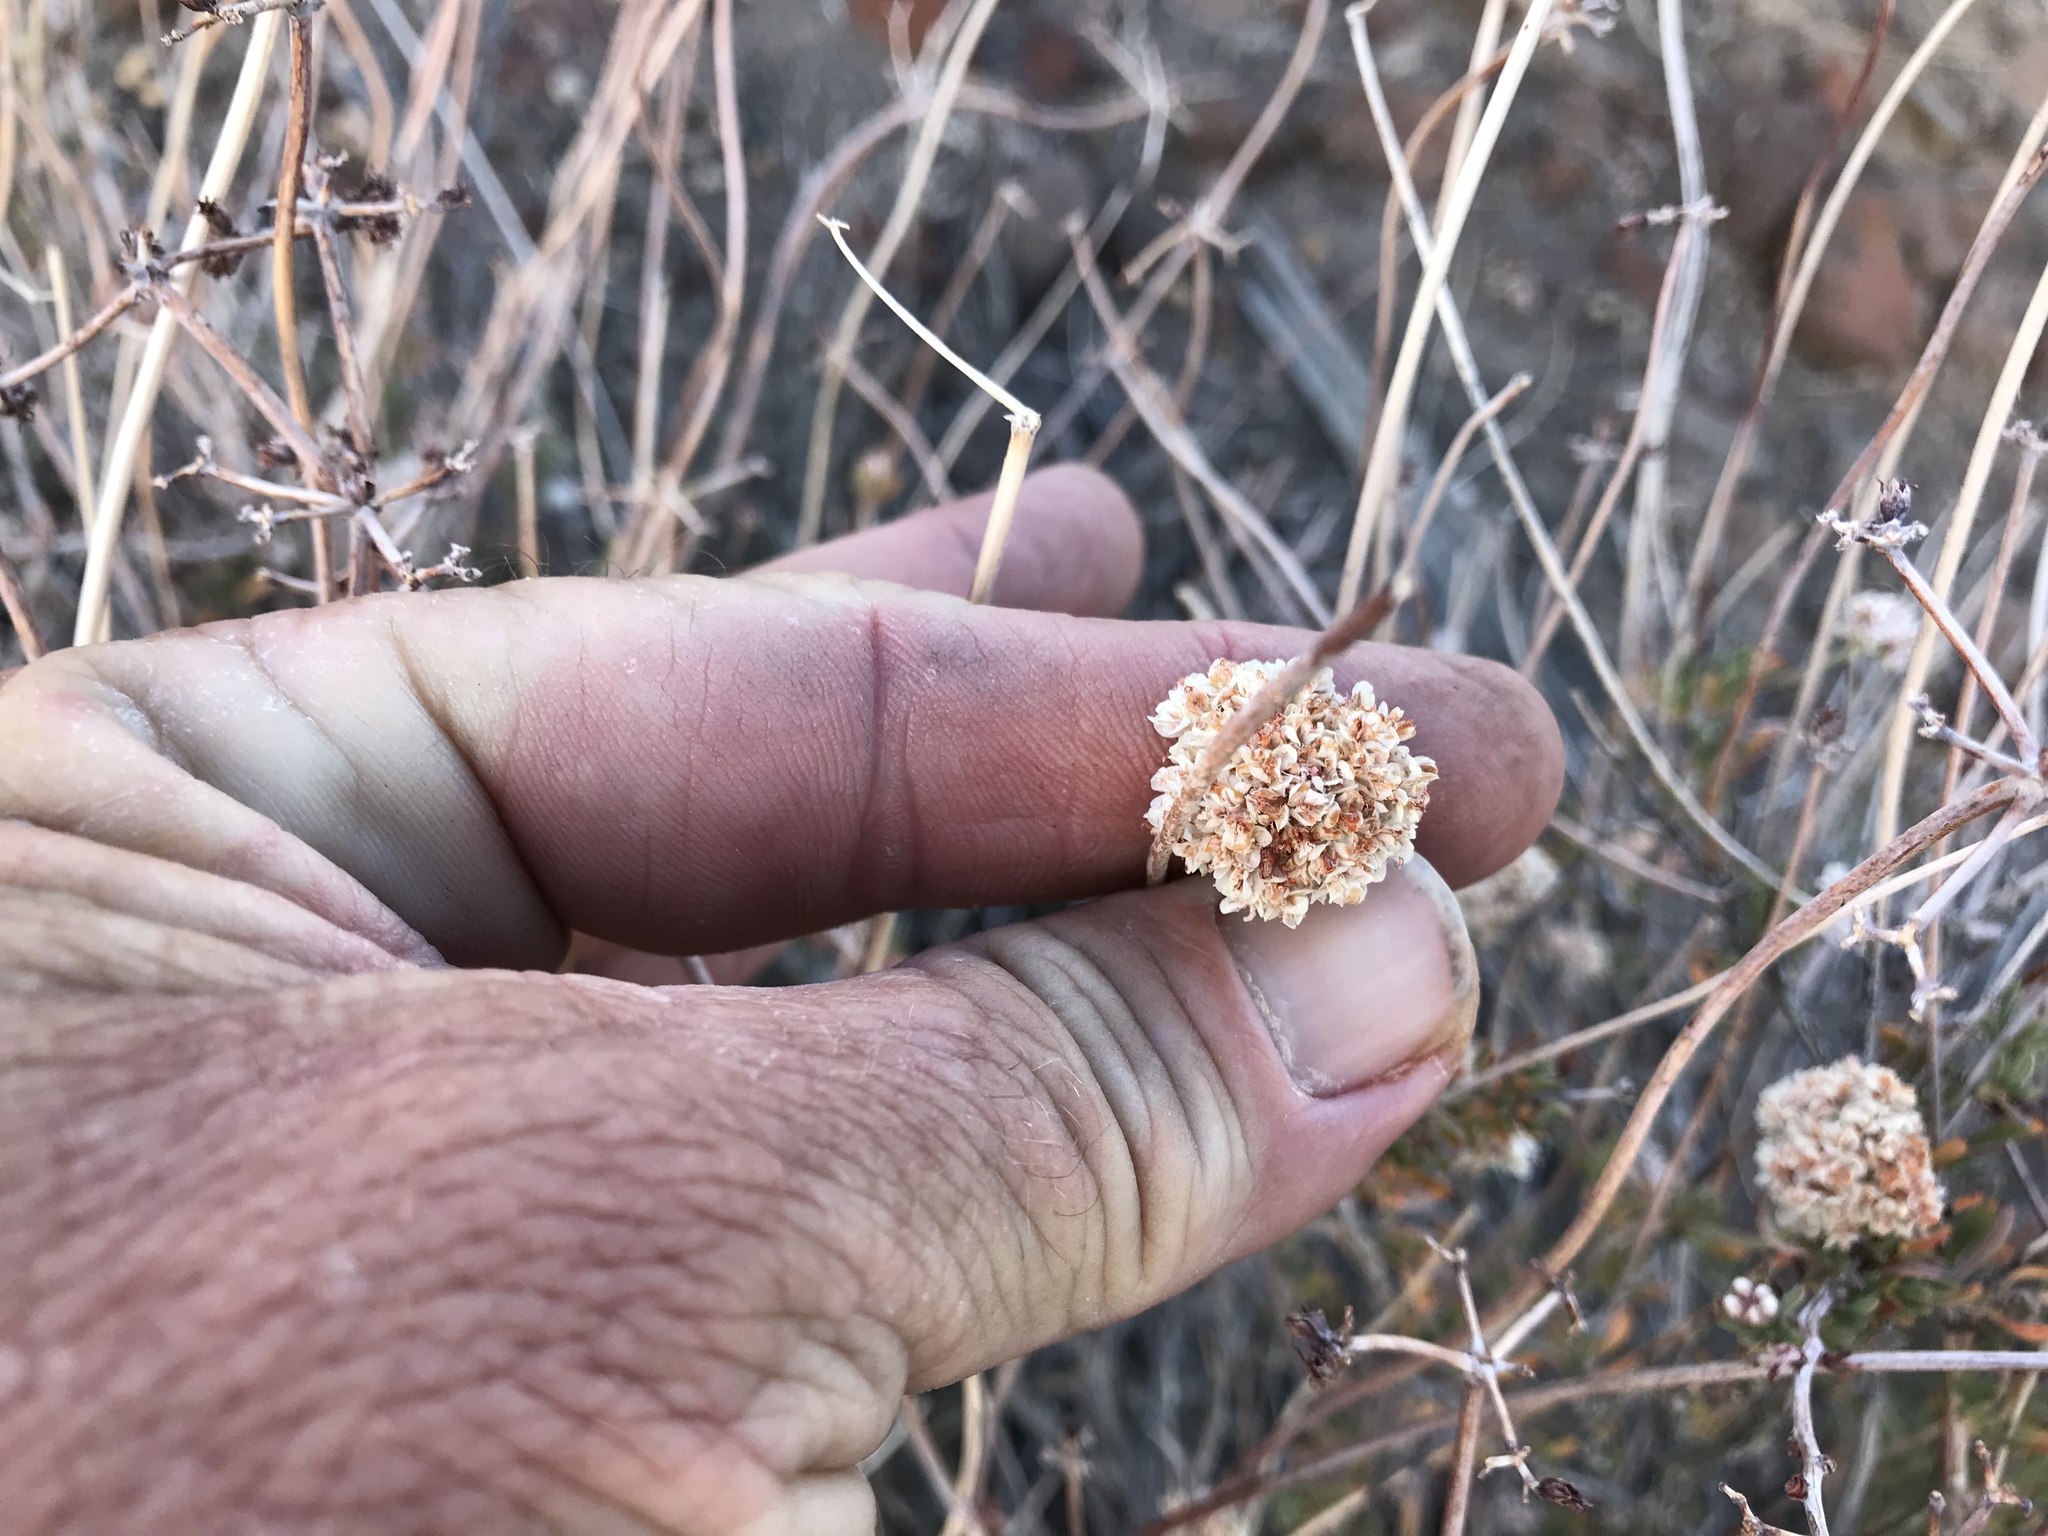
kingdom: Plantae
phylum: Tracheophyta
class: Magnoliopsida
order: Caryophyllales
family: Polygonaceae
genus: Eriogonum
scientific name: Eriogonum fasciculatum
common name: California wild buckwheat
